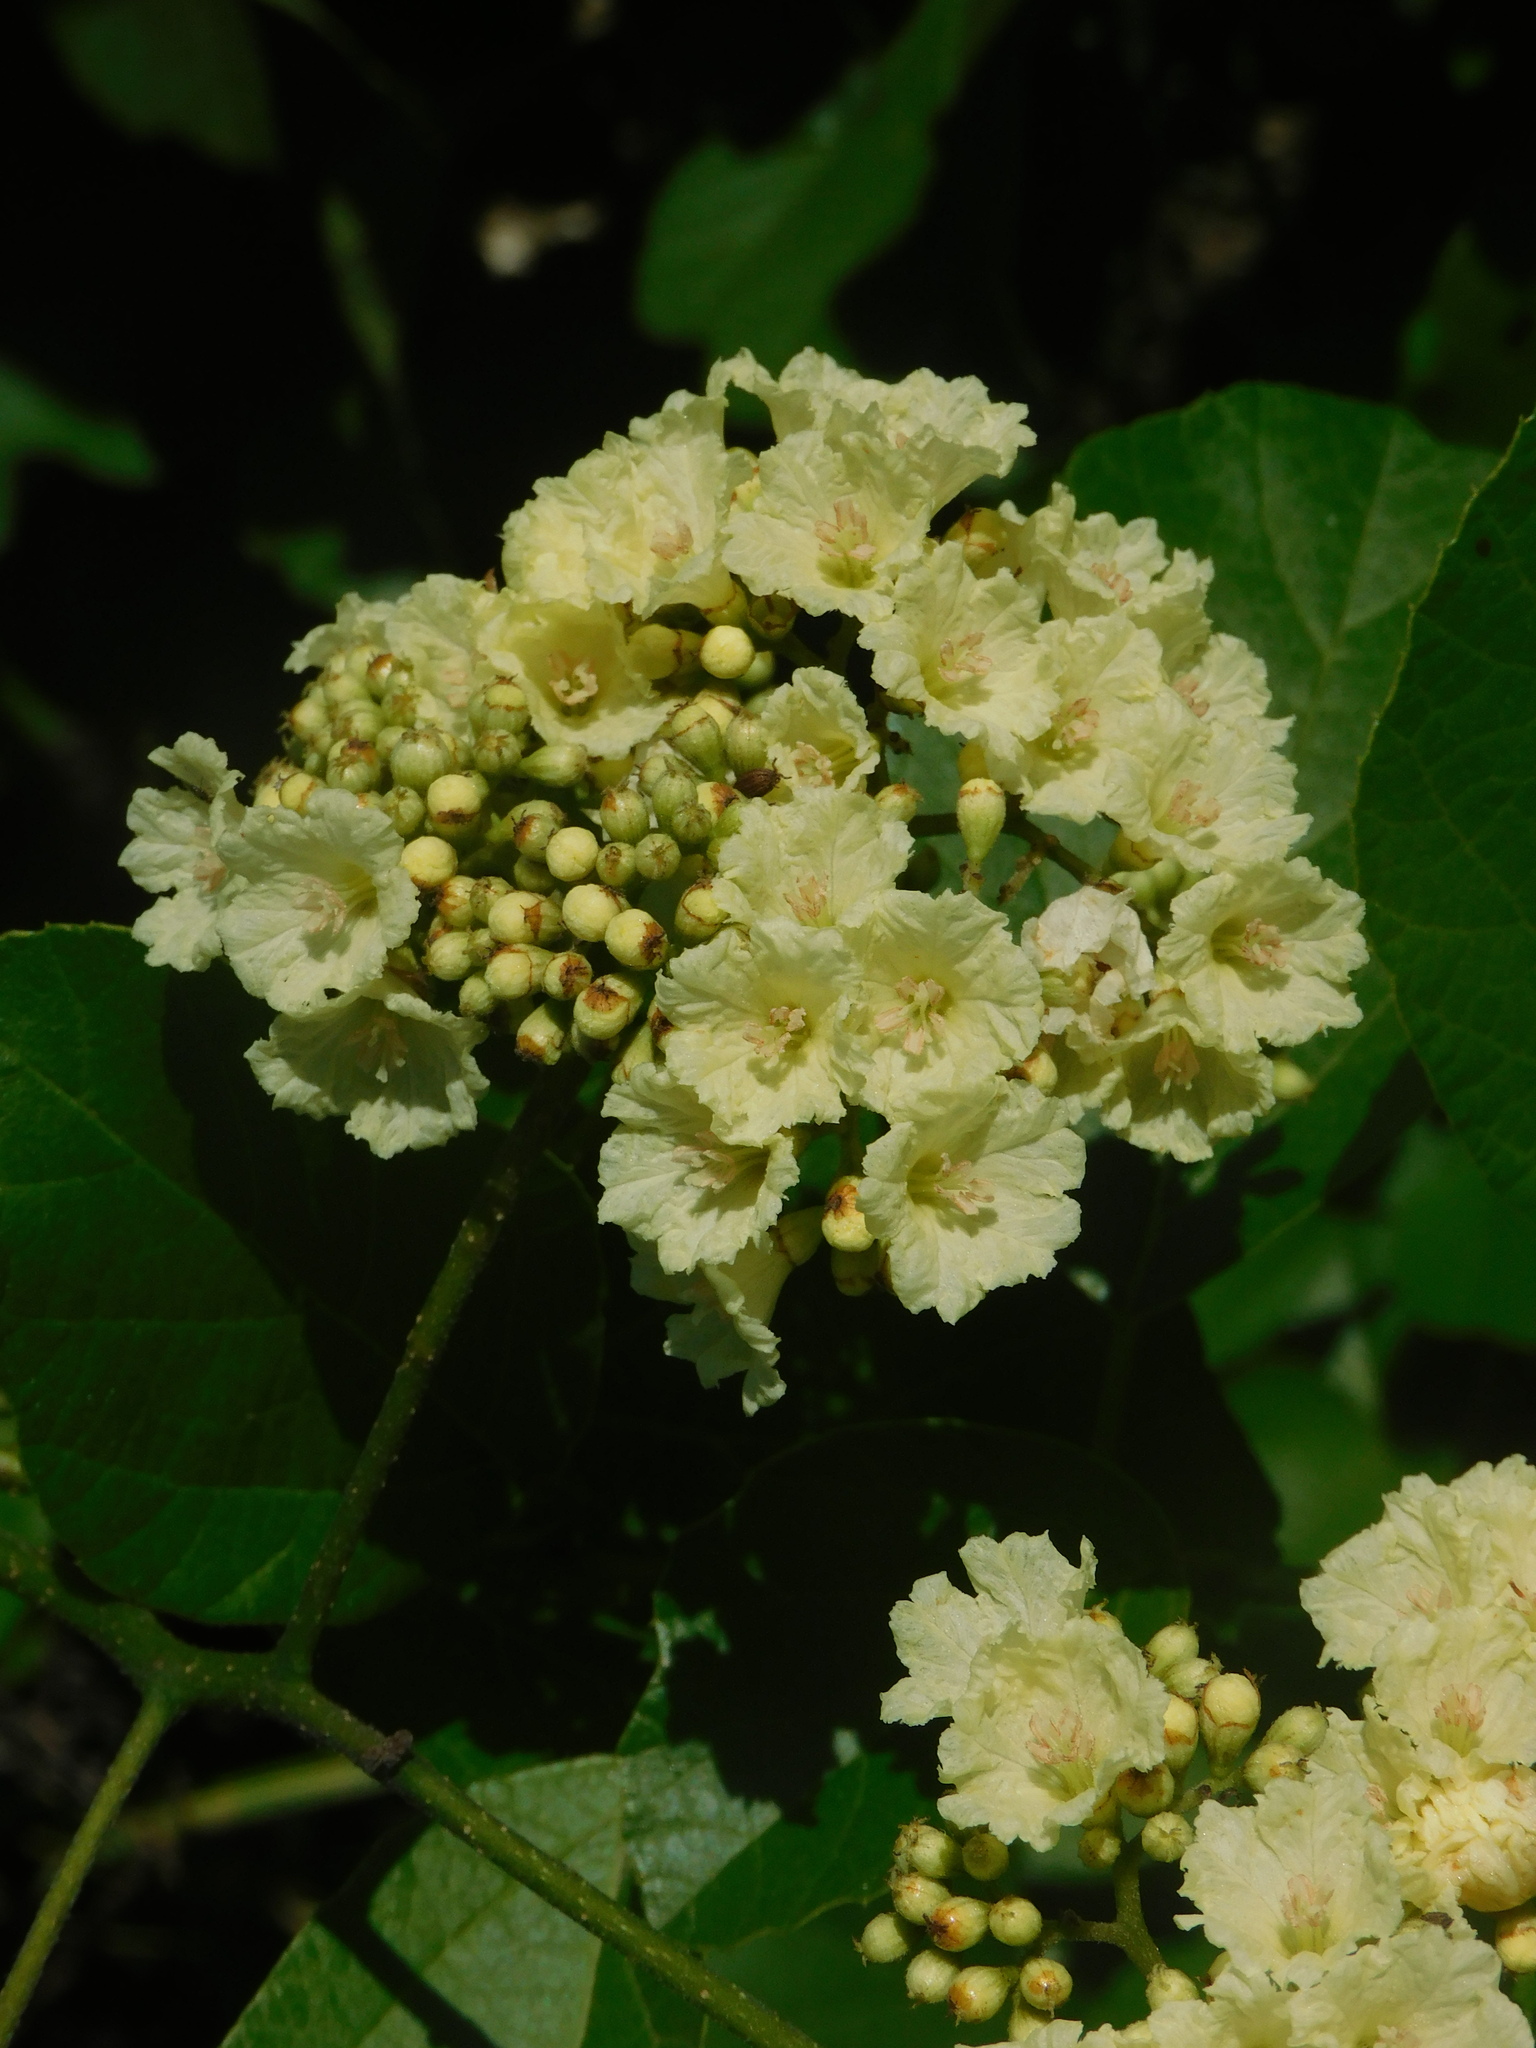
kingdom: Plantae
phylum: Tracheophyta
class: Magnoliopsida
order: Boraginales
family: Cordiaceae
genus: Cordia
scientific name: Cordia dentata
